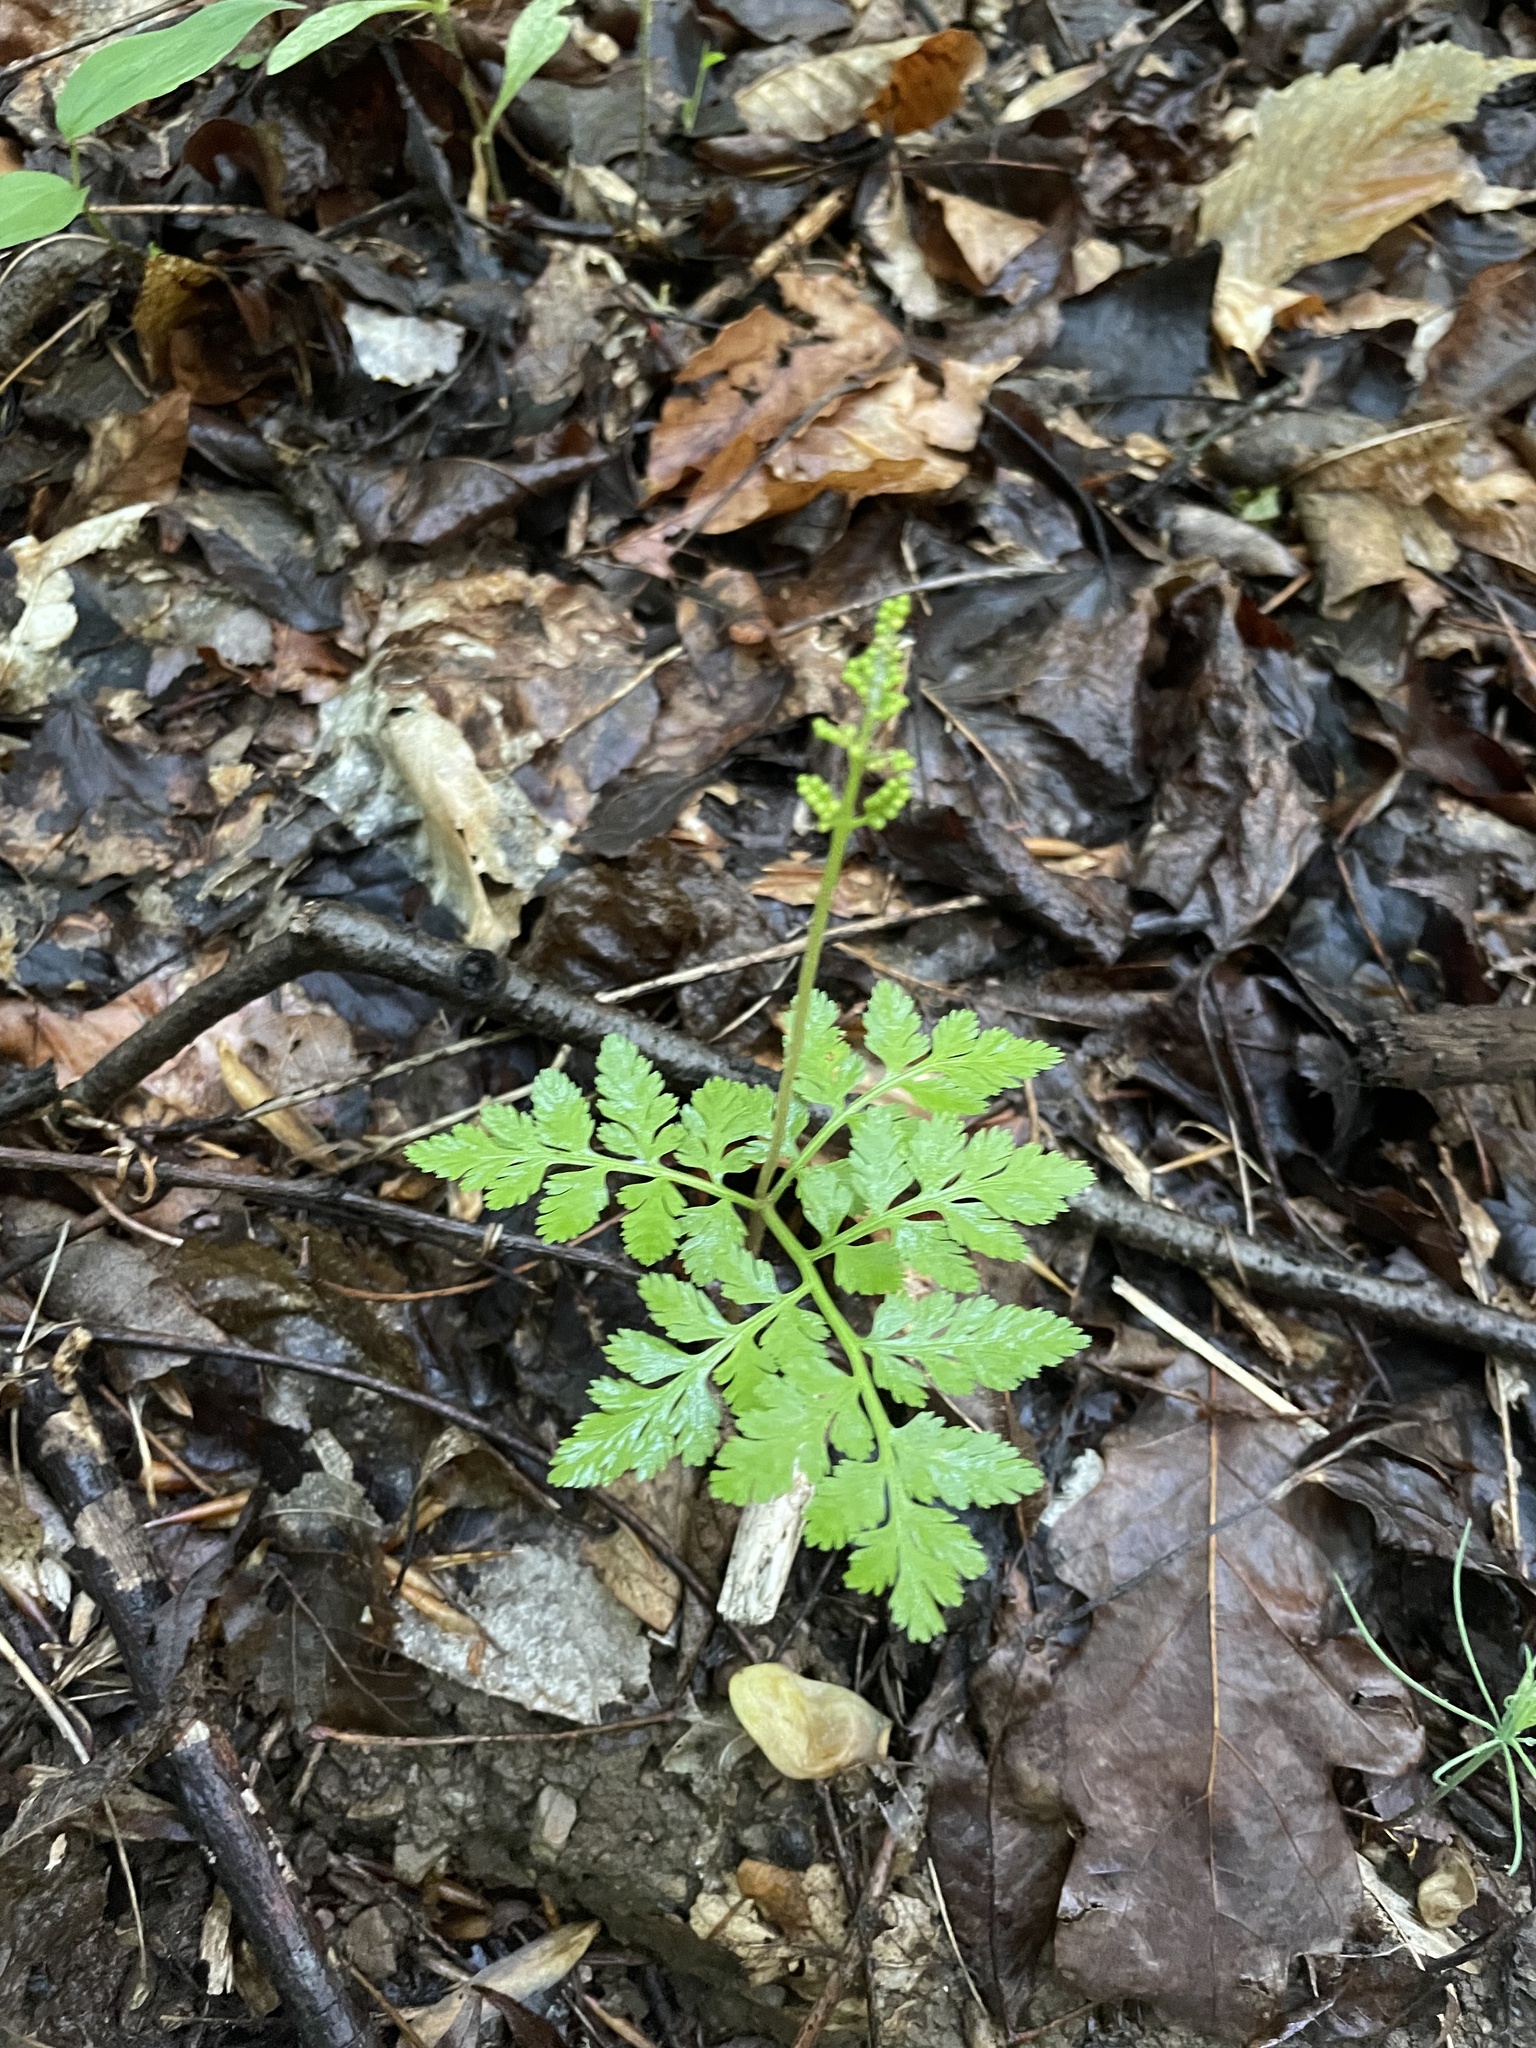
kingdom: Plantae
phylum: Tracheophyta
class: Polypodiopsida
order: Ophioglossales
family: Ophioglossaceae
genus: Botrypus
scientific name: Botrypus virginianus
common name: Common grapefern
